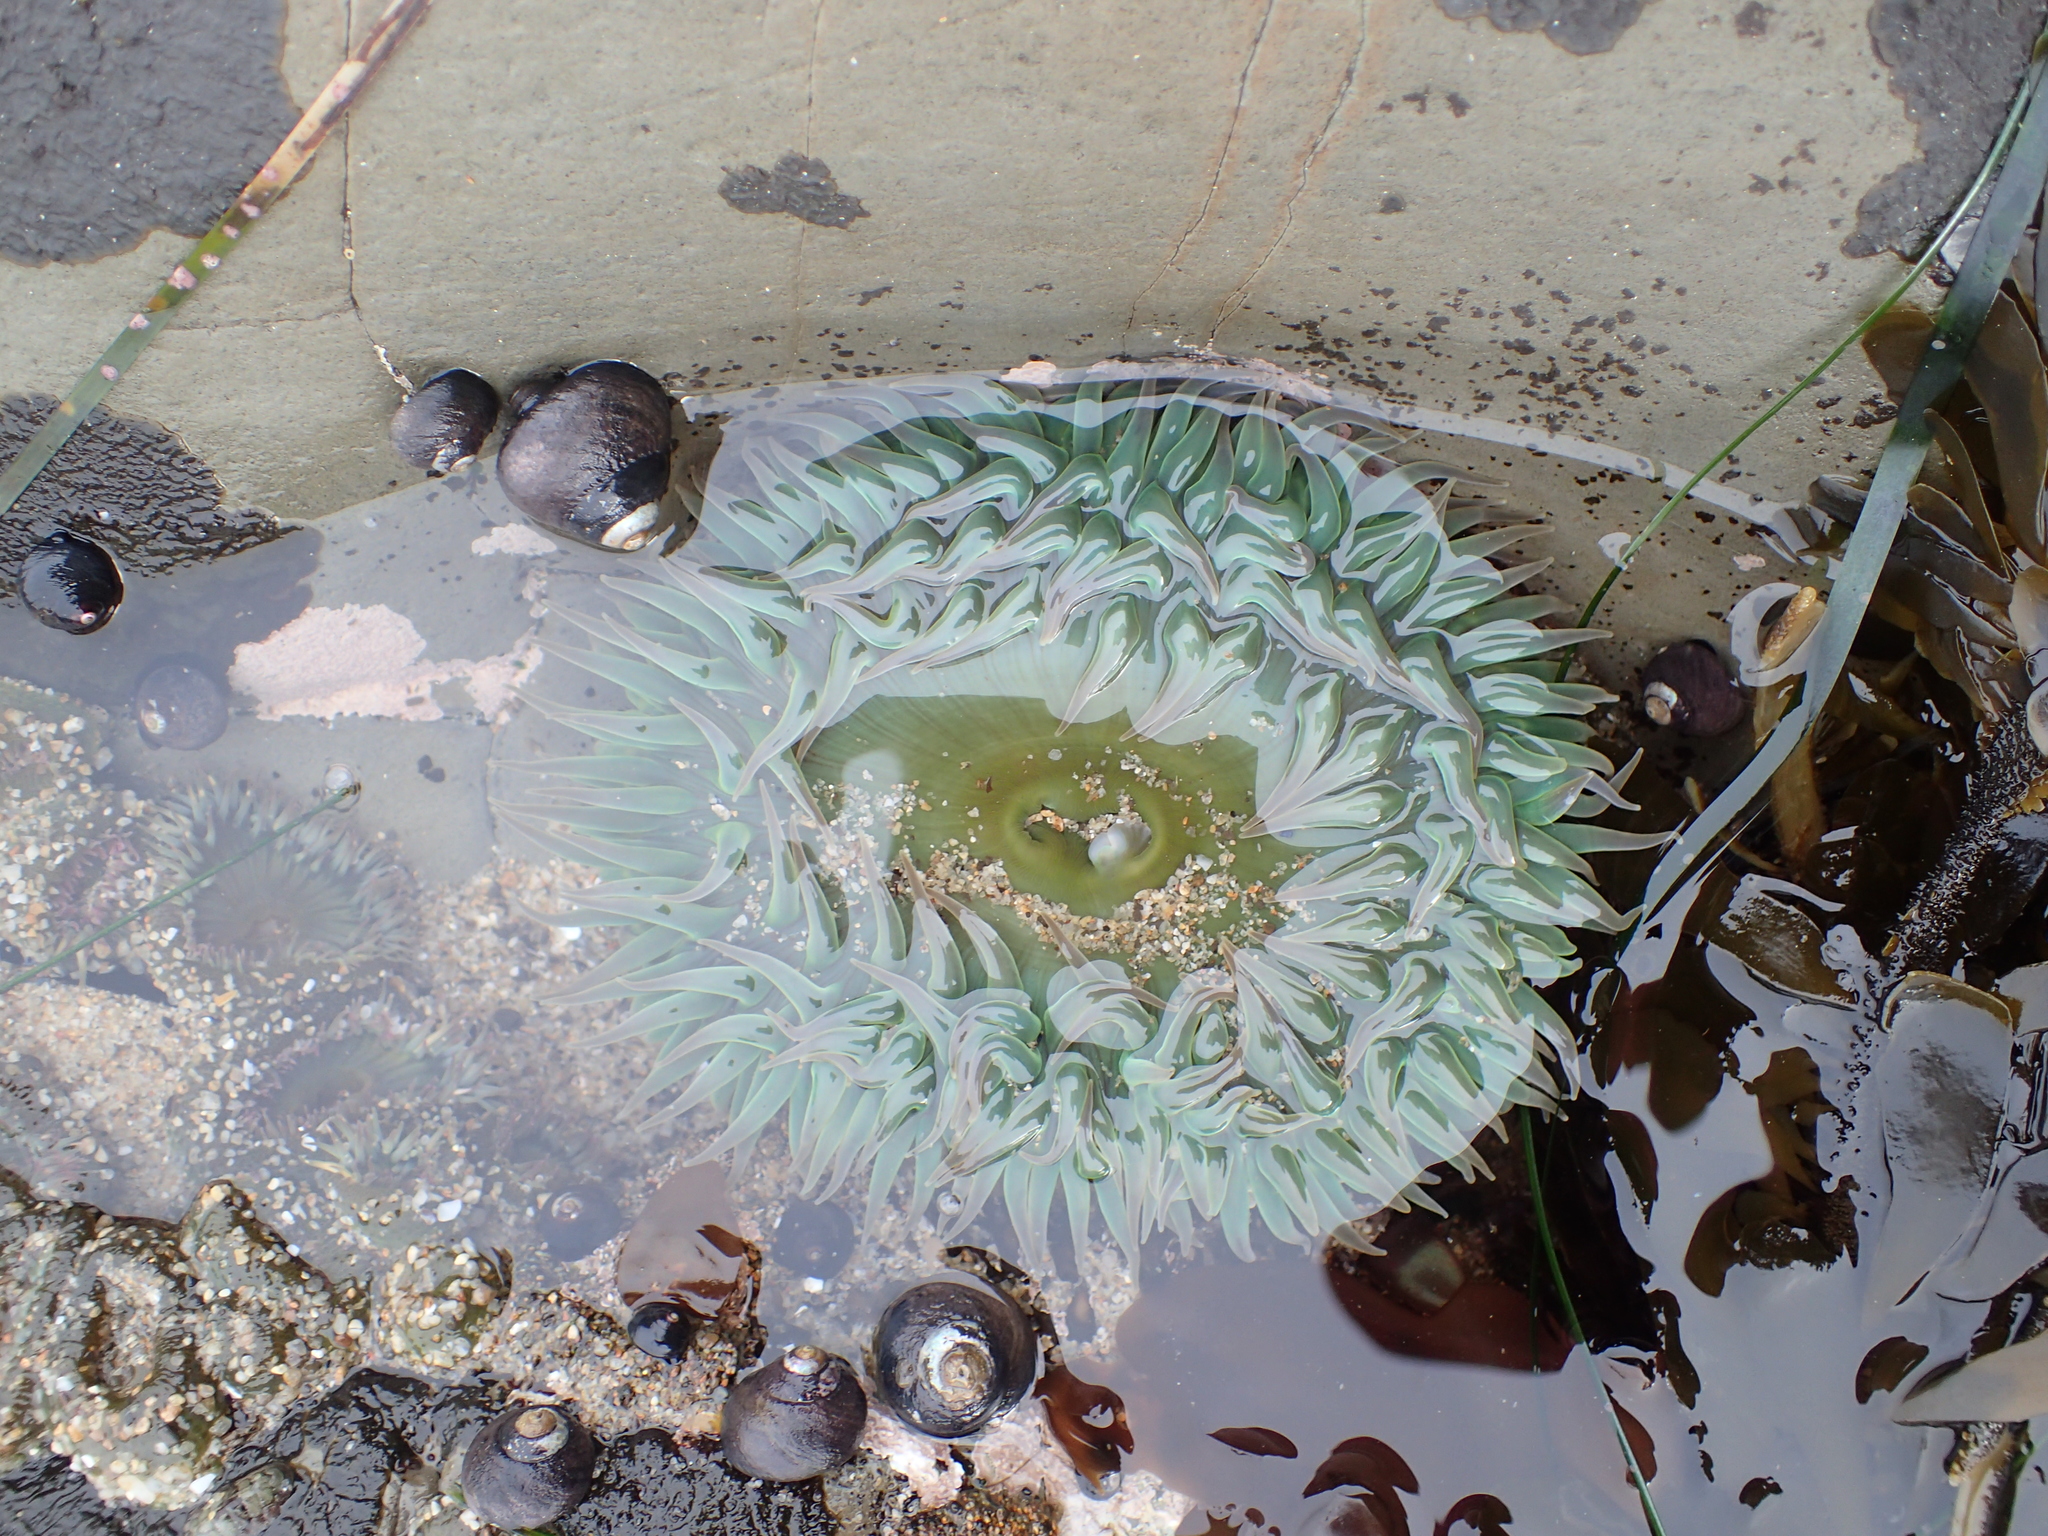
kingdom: Animalia
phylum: Cnidaria
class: Anthozoa
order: Actiniaria
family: Actiniidae
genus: Anthopleura
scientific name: Anthopleura xanthogrammica
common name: Giant green anemone
